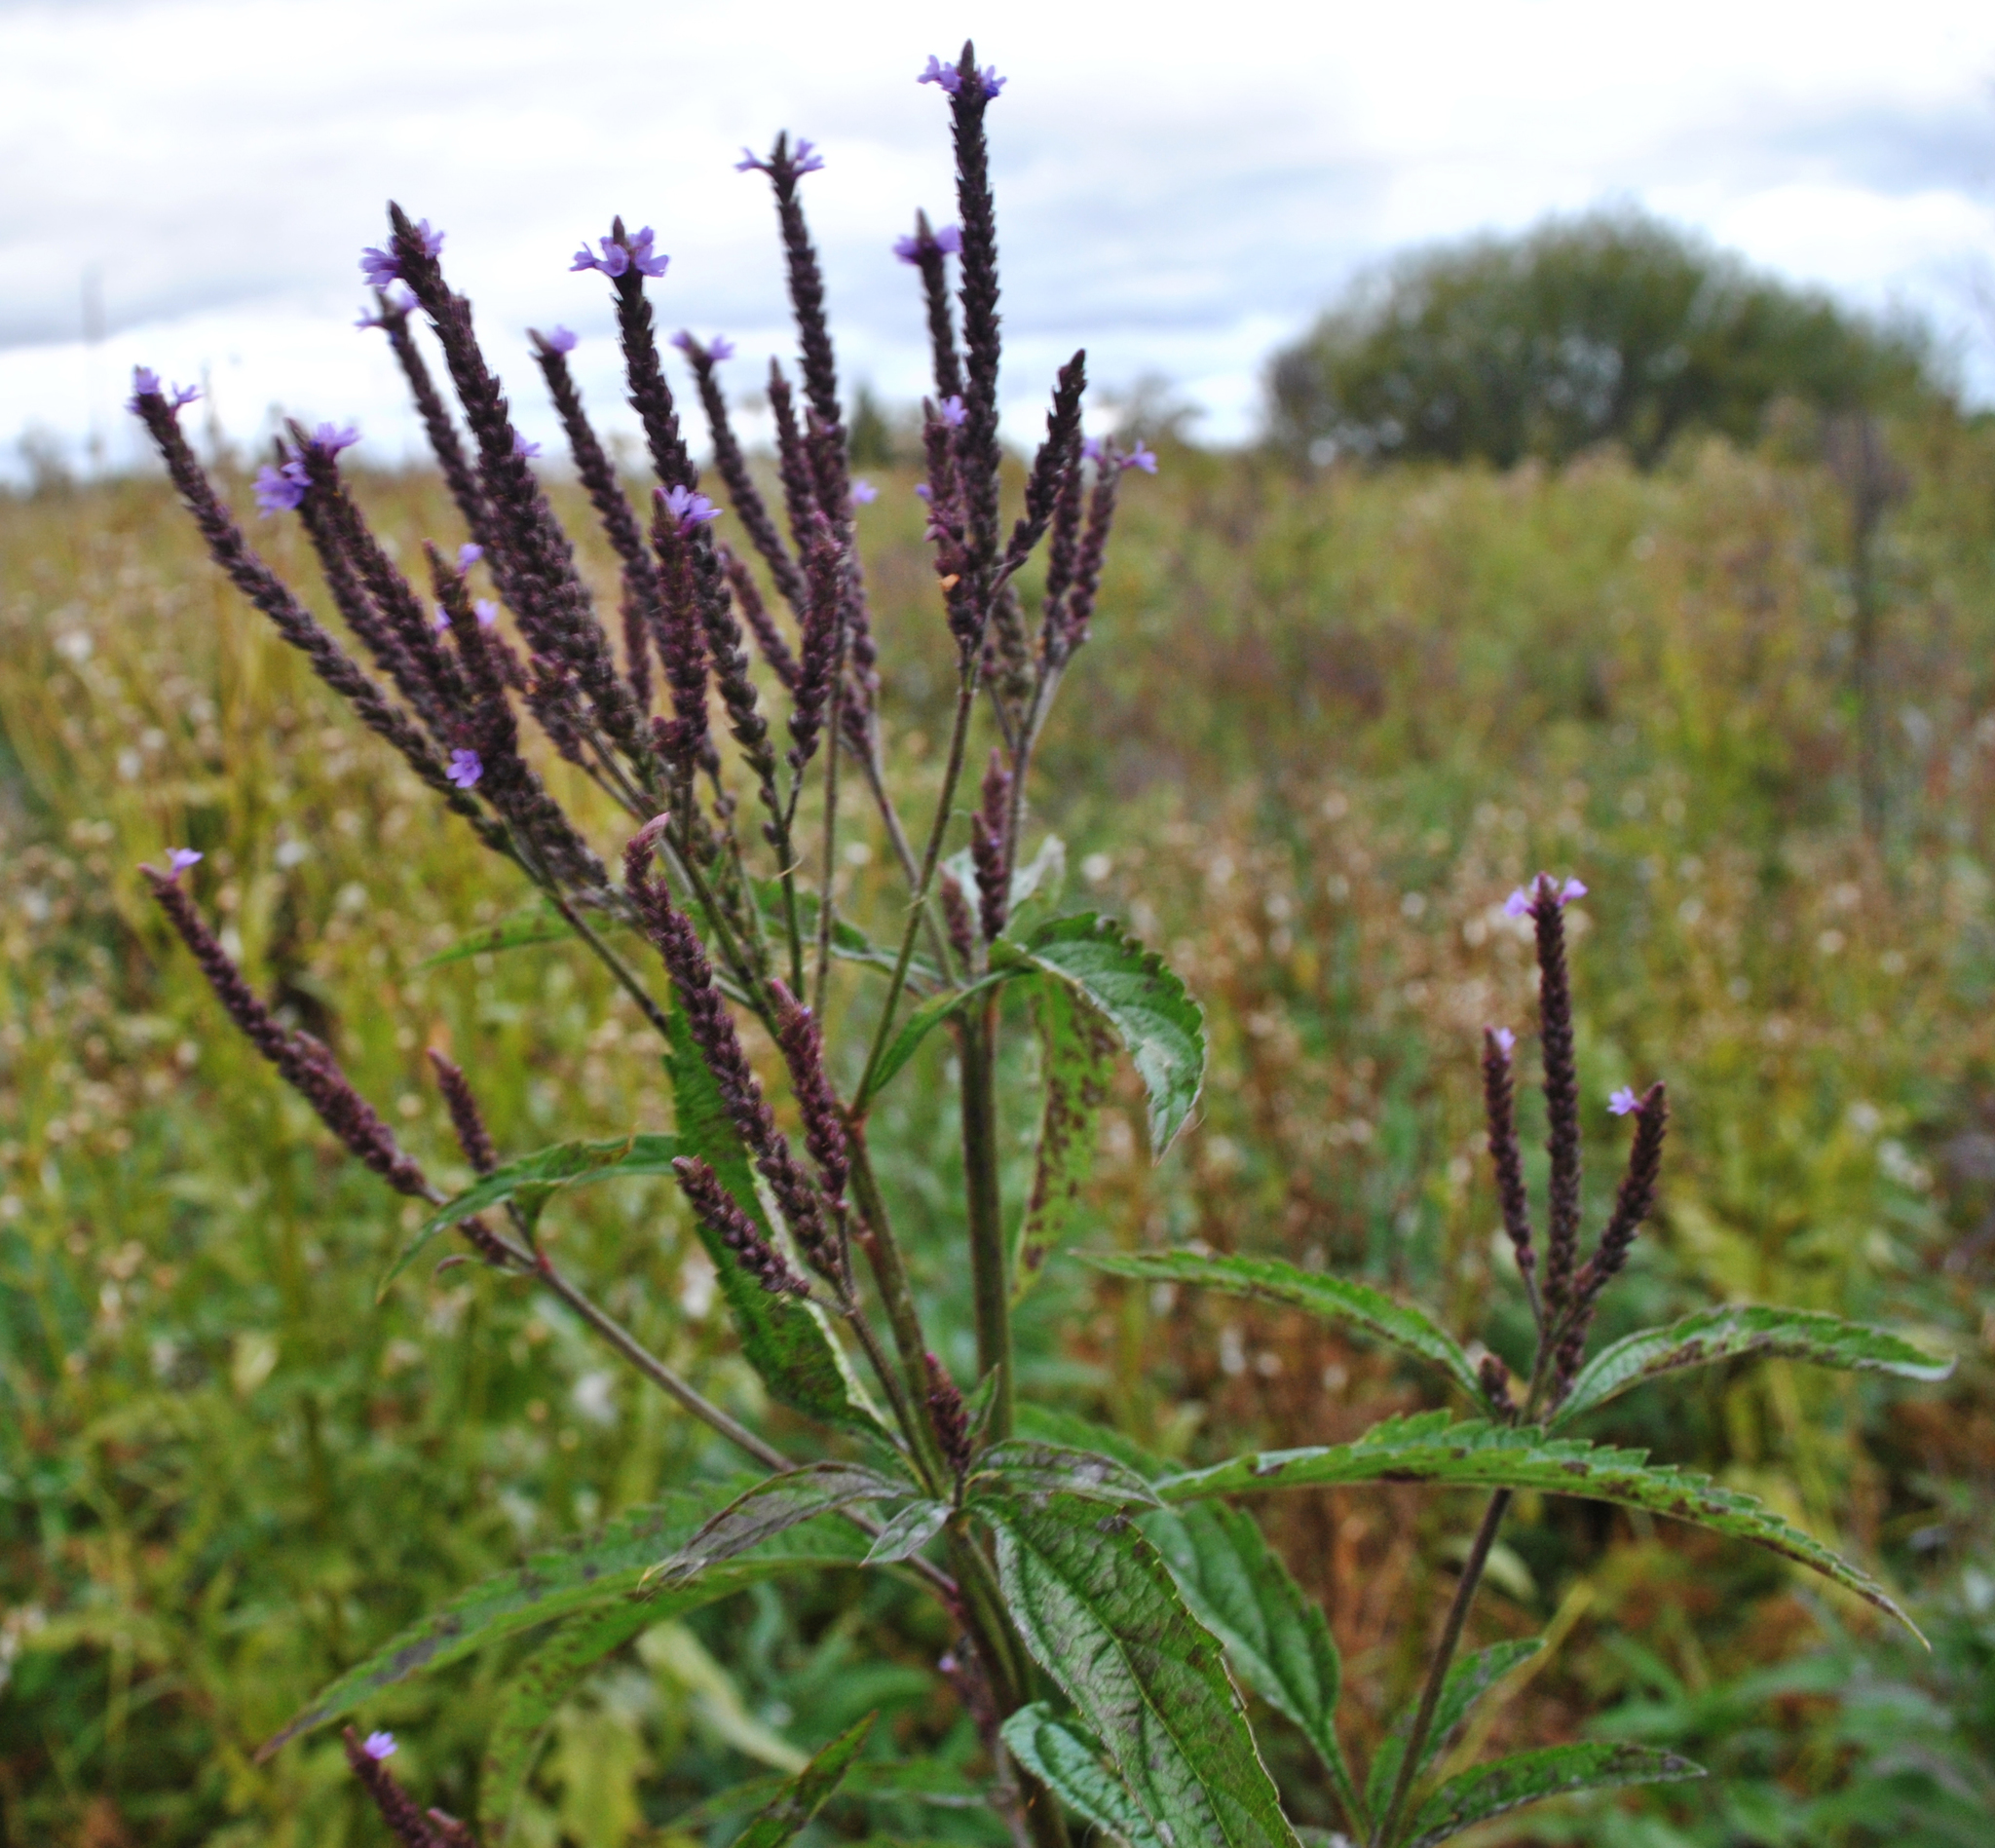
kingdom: Plantae
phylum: Tracheophyta
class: Magnoliopsida
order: Lamiales
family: Verbenaceae
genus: Verbena
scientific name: Verbena hastata
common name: American blue vervain
